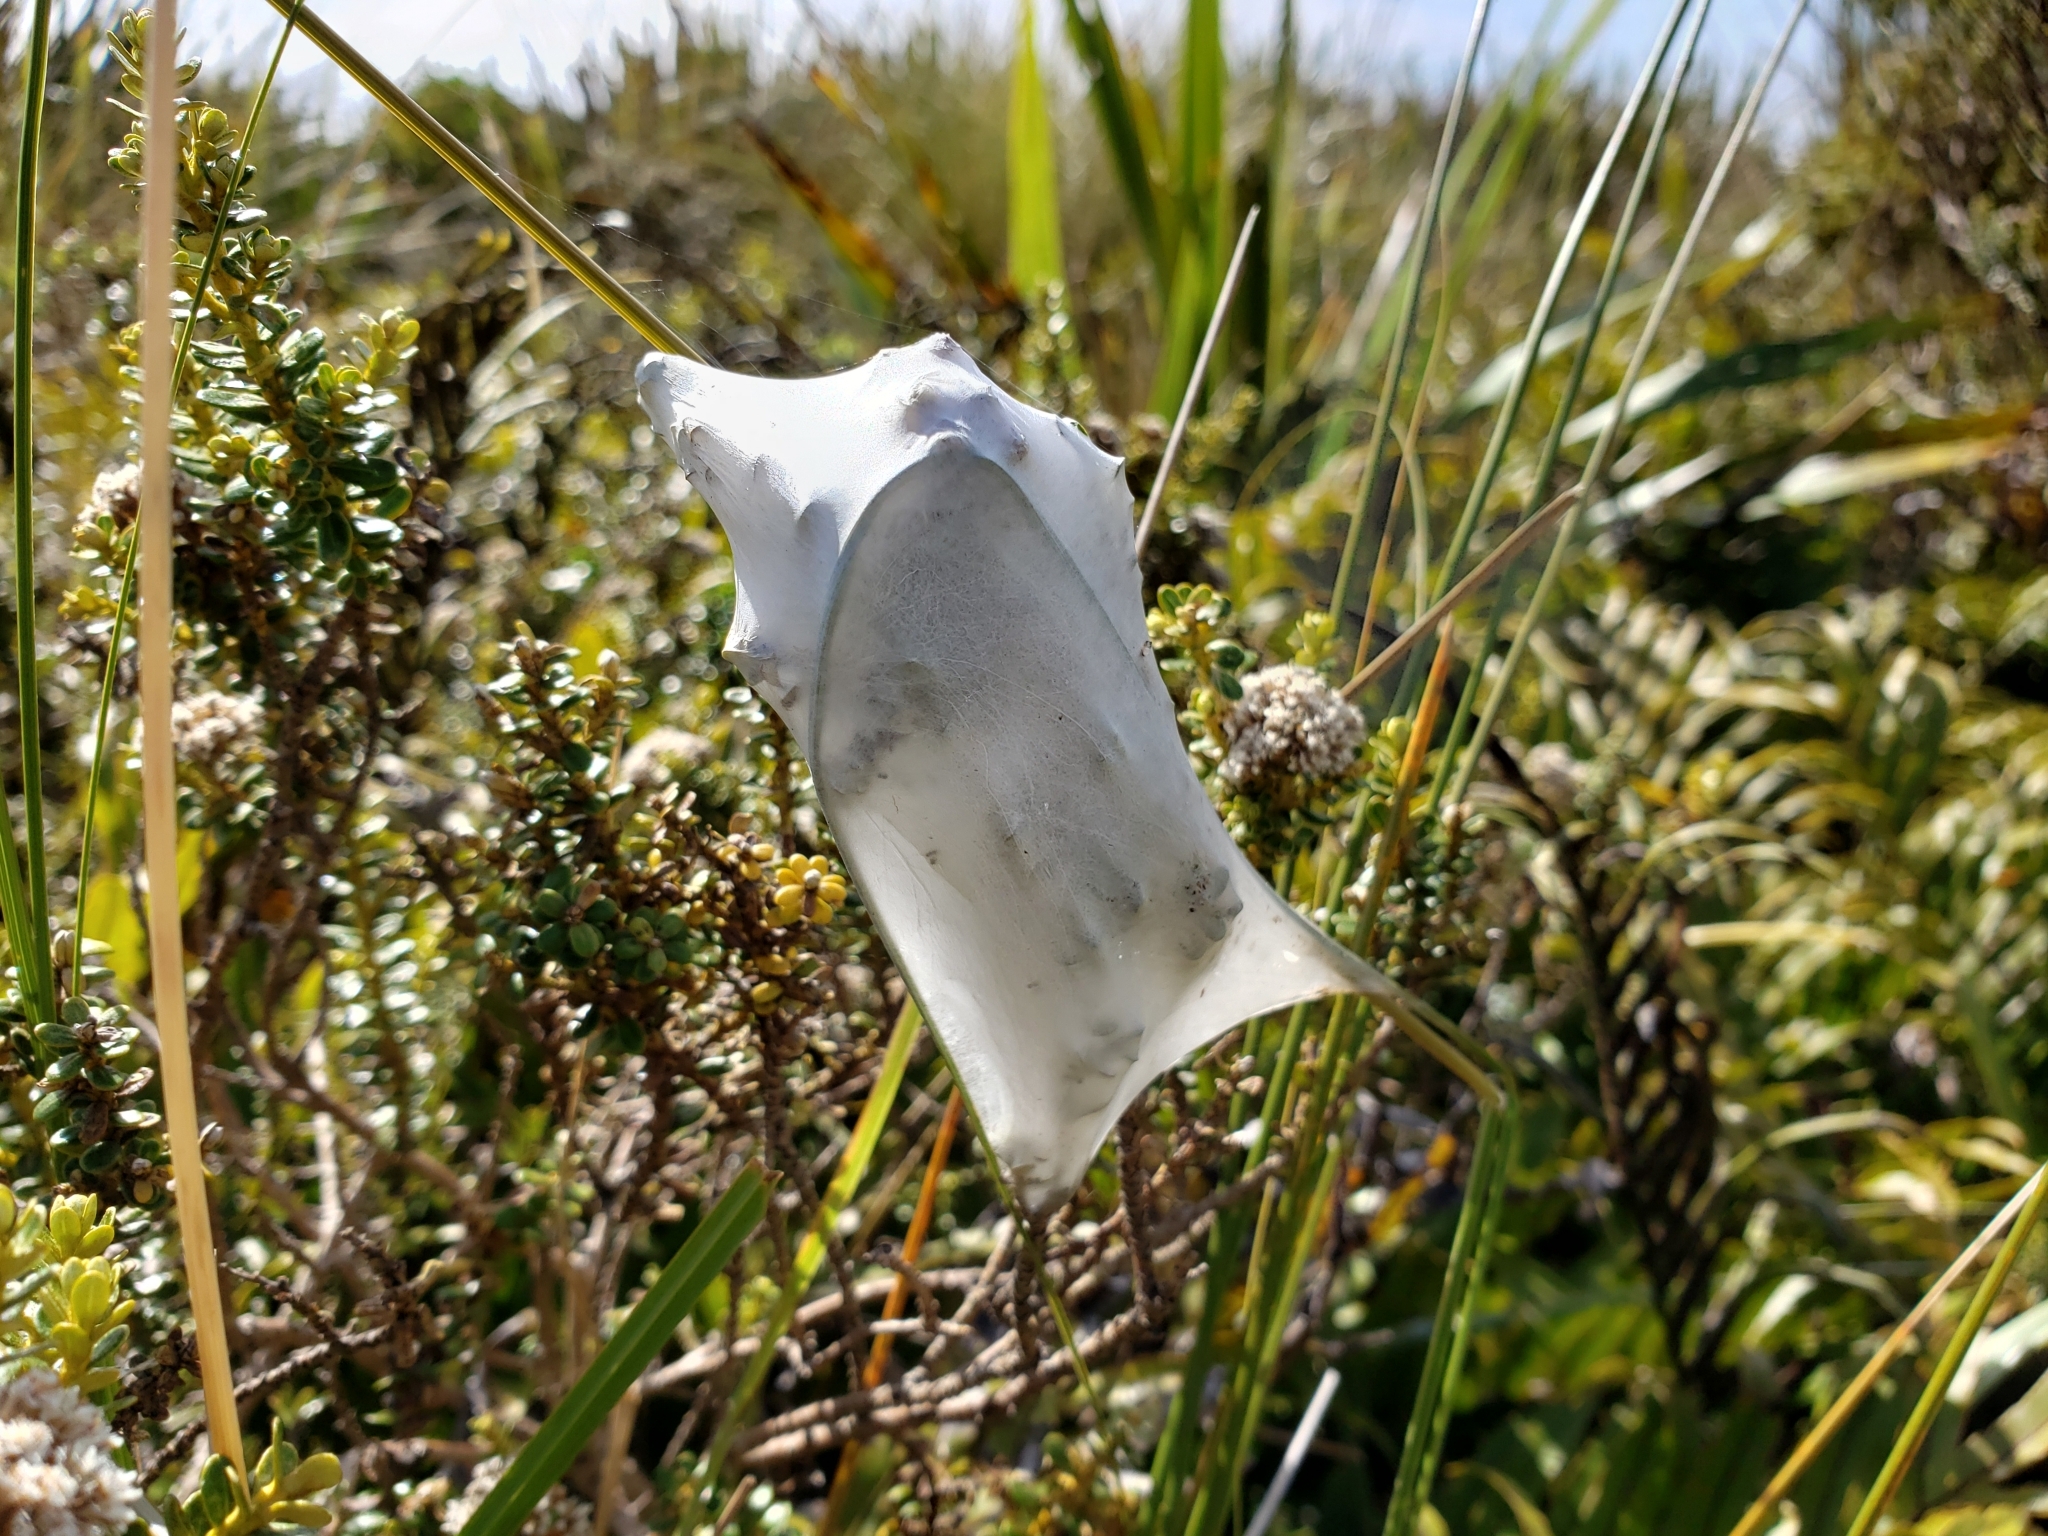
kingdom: Animalia
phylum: Arthropoda
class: Arachnida
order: Araneae
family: Pisauridae
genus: Dolomedes
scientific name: Dolomedes minor
